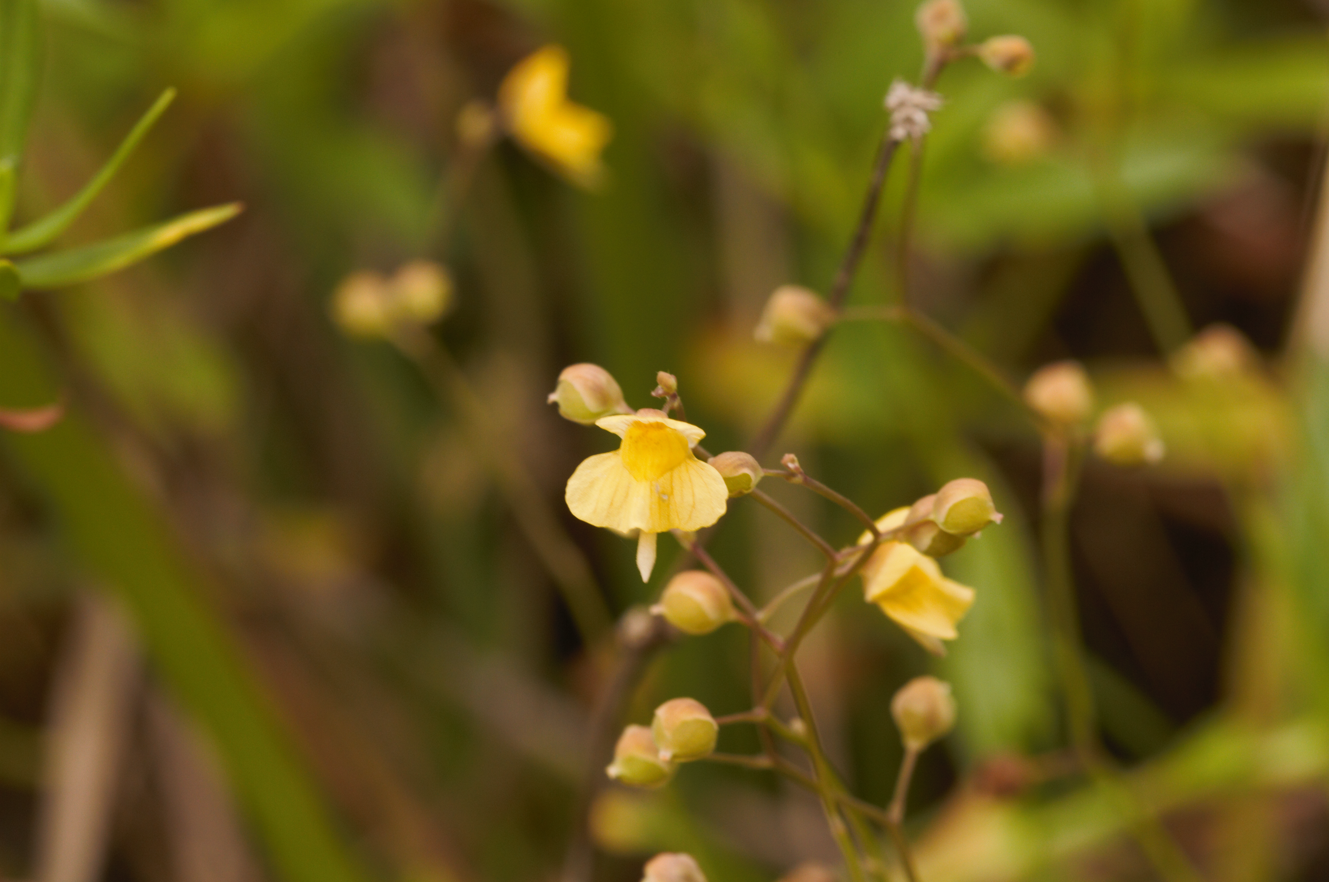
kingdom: Plantae
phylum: Tracheophyta
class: Magnoliopsida
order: Lamiales
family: Lentibulariaceae
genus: Utricularia
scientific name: Utricularia hispida
